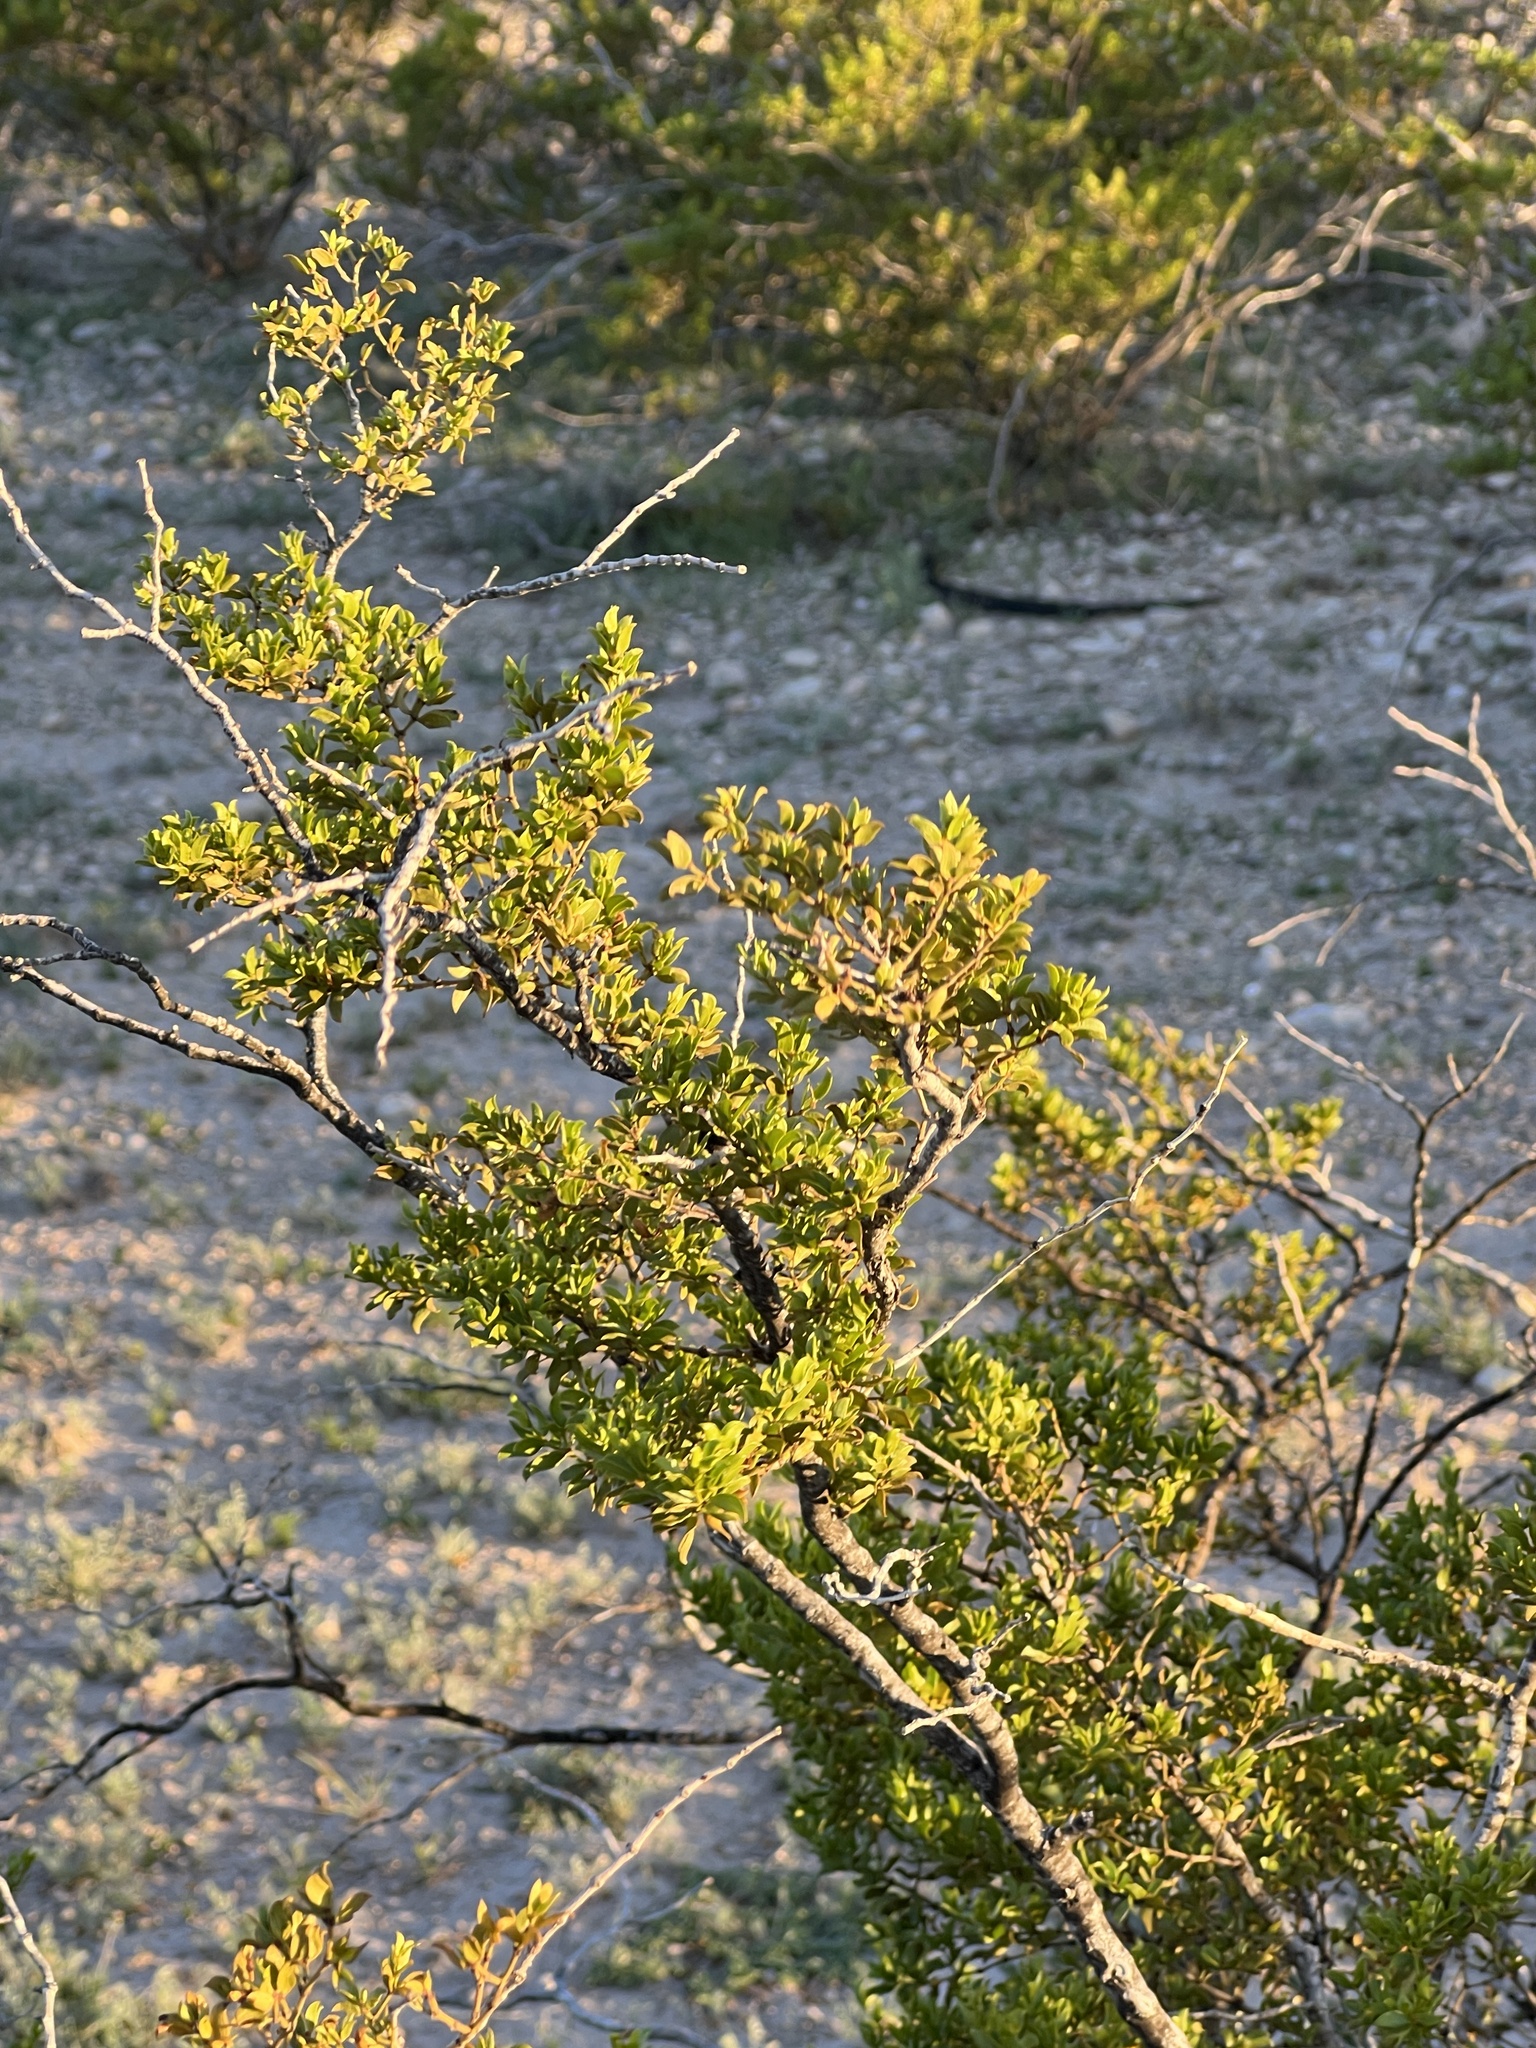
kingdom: Plantae
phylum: Tracheophyta
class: Magnoliopsida
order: Zygophyllales
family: Zygophyllaceae
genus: Larrea
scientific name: Larrea tridentata
